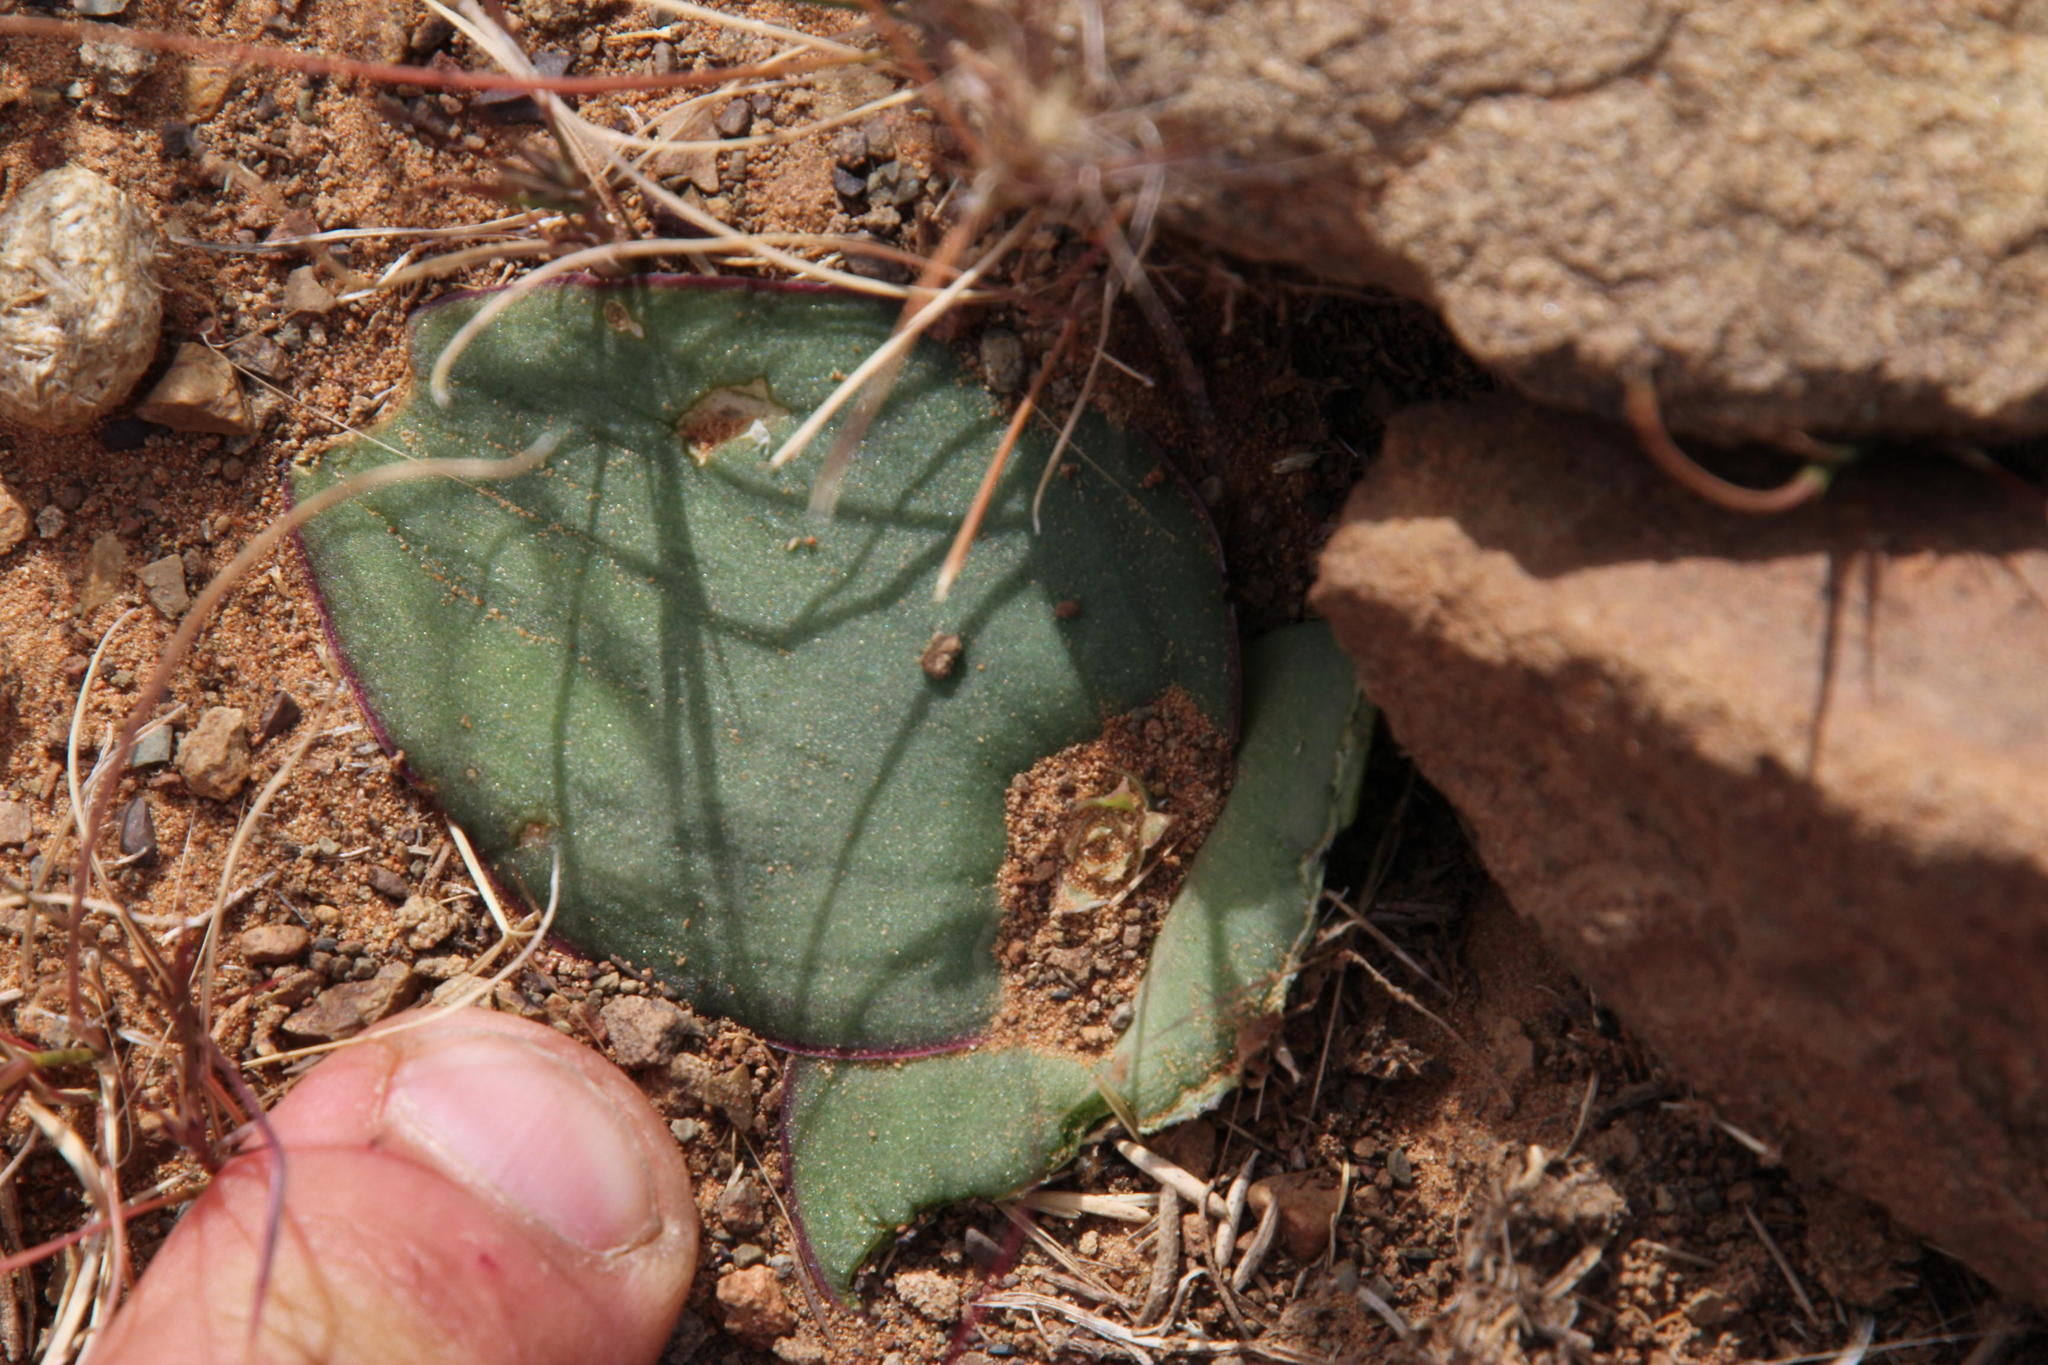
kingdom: Plantae
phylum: Tracheophyta
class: Liliopsida
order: Asparagales
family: Asparagaceae
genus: Massonia
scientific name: Massonia depressa
